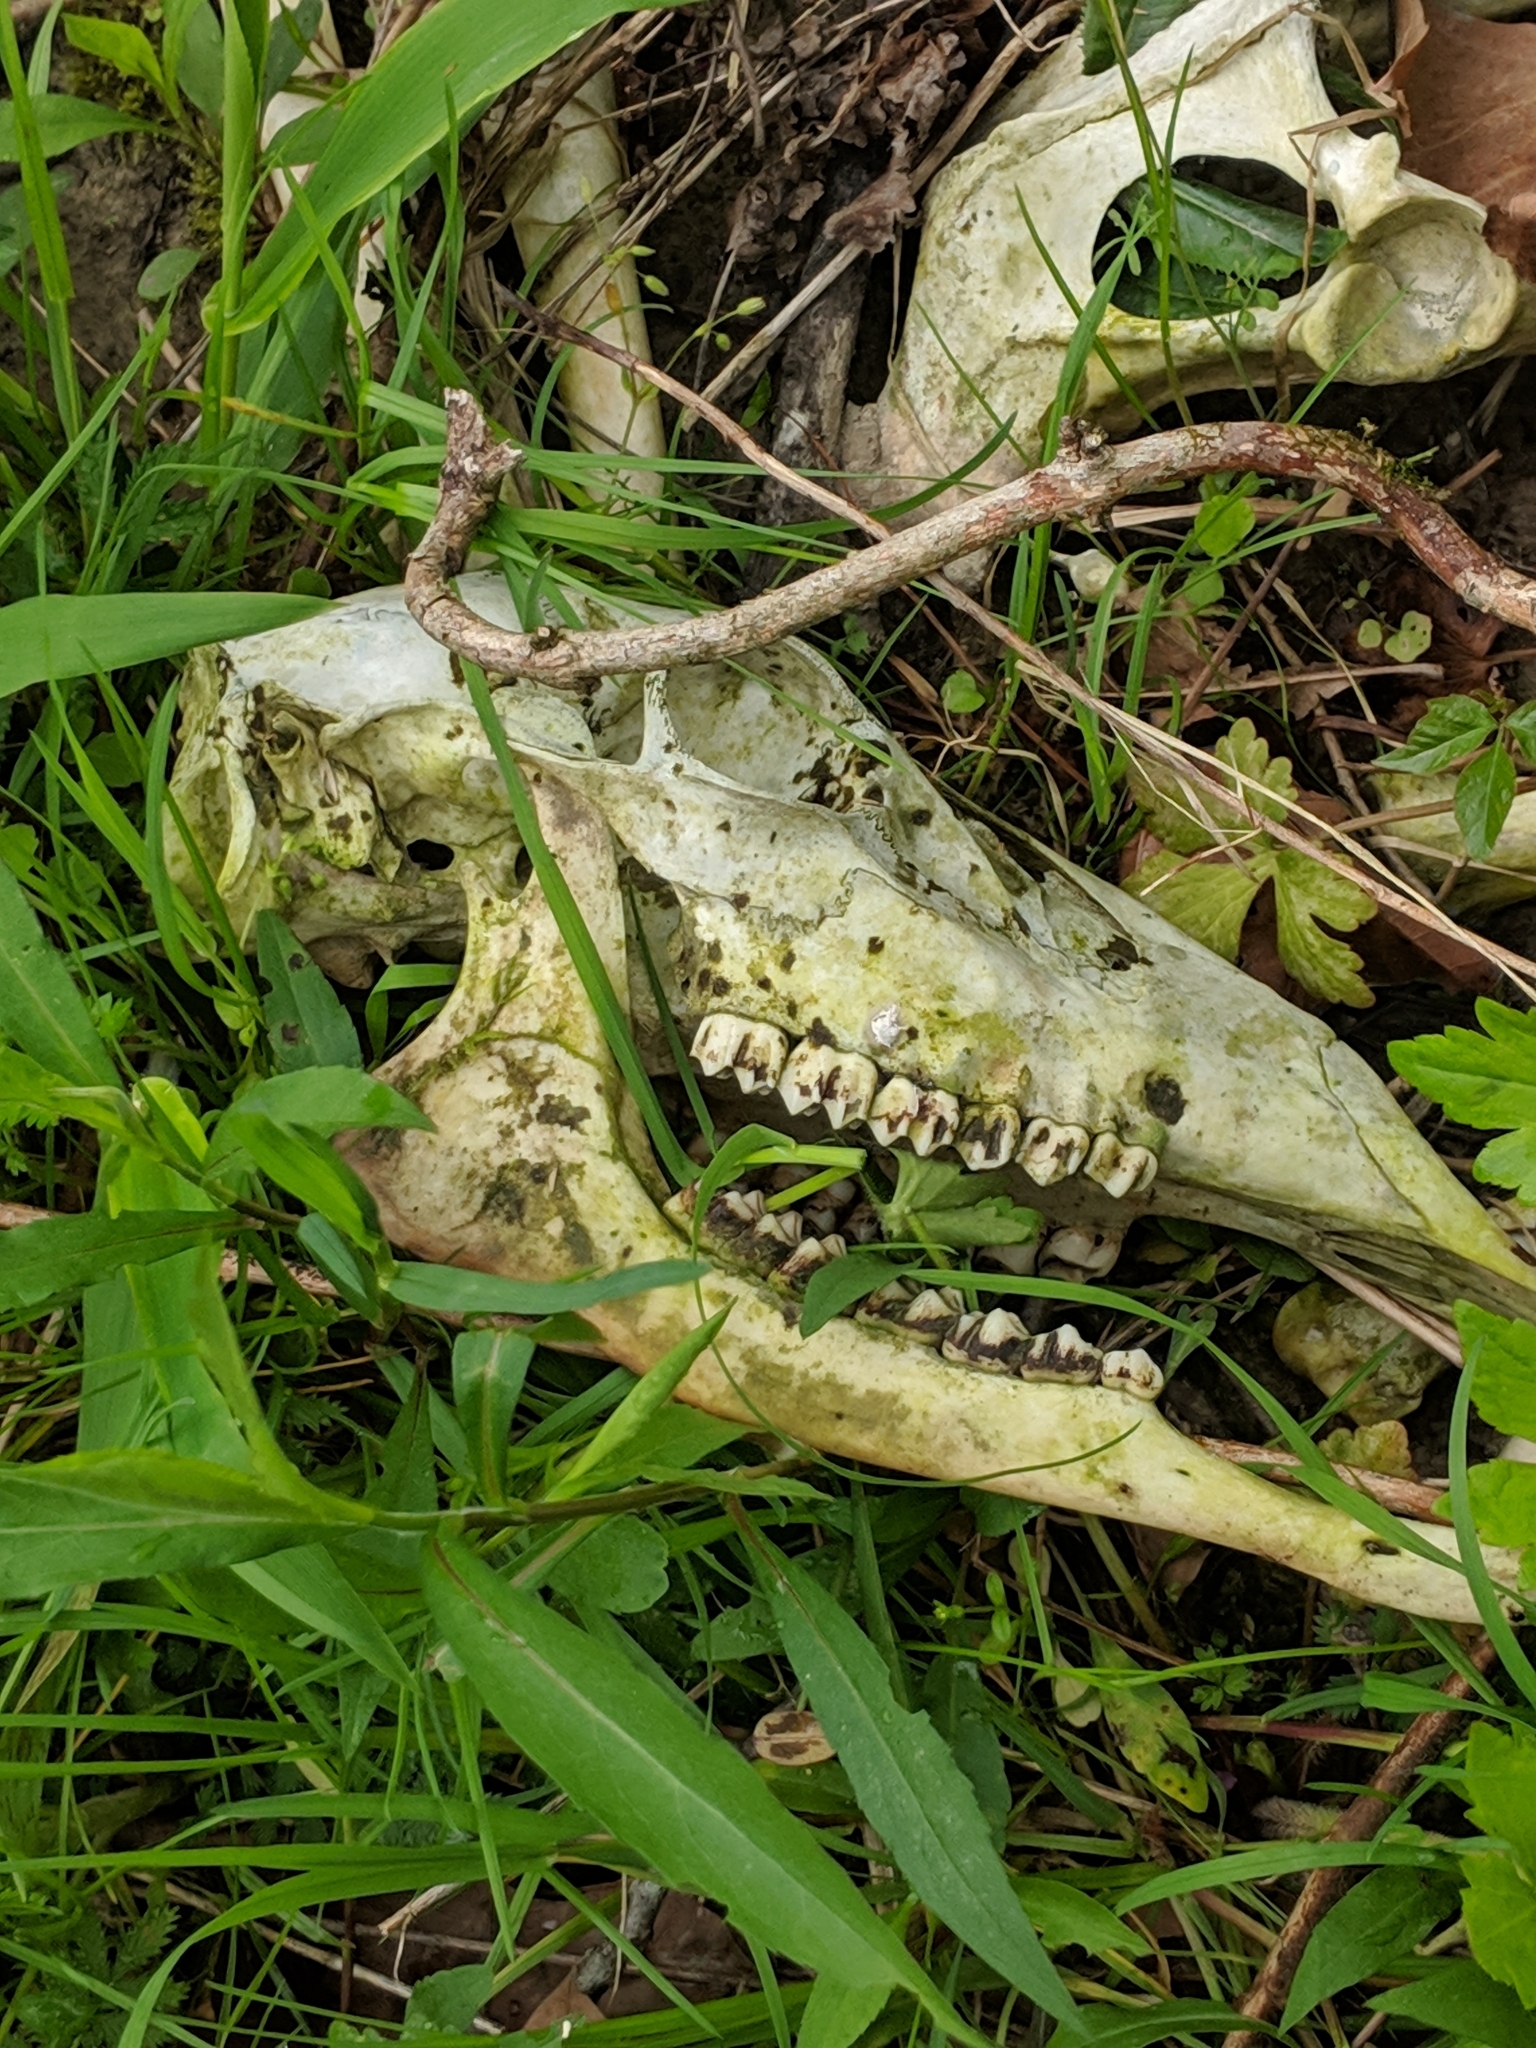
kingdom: Animalia
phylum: Chordata
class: Mammalia
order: Artiodactyla
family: Cervidae
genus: Odocoileus
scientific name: Odocoileus virginianus
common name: White-tailed deer
